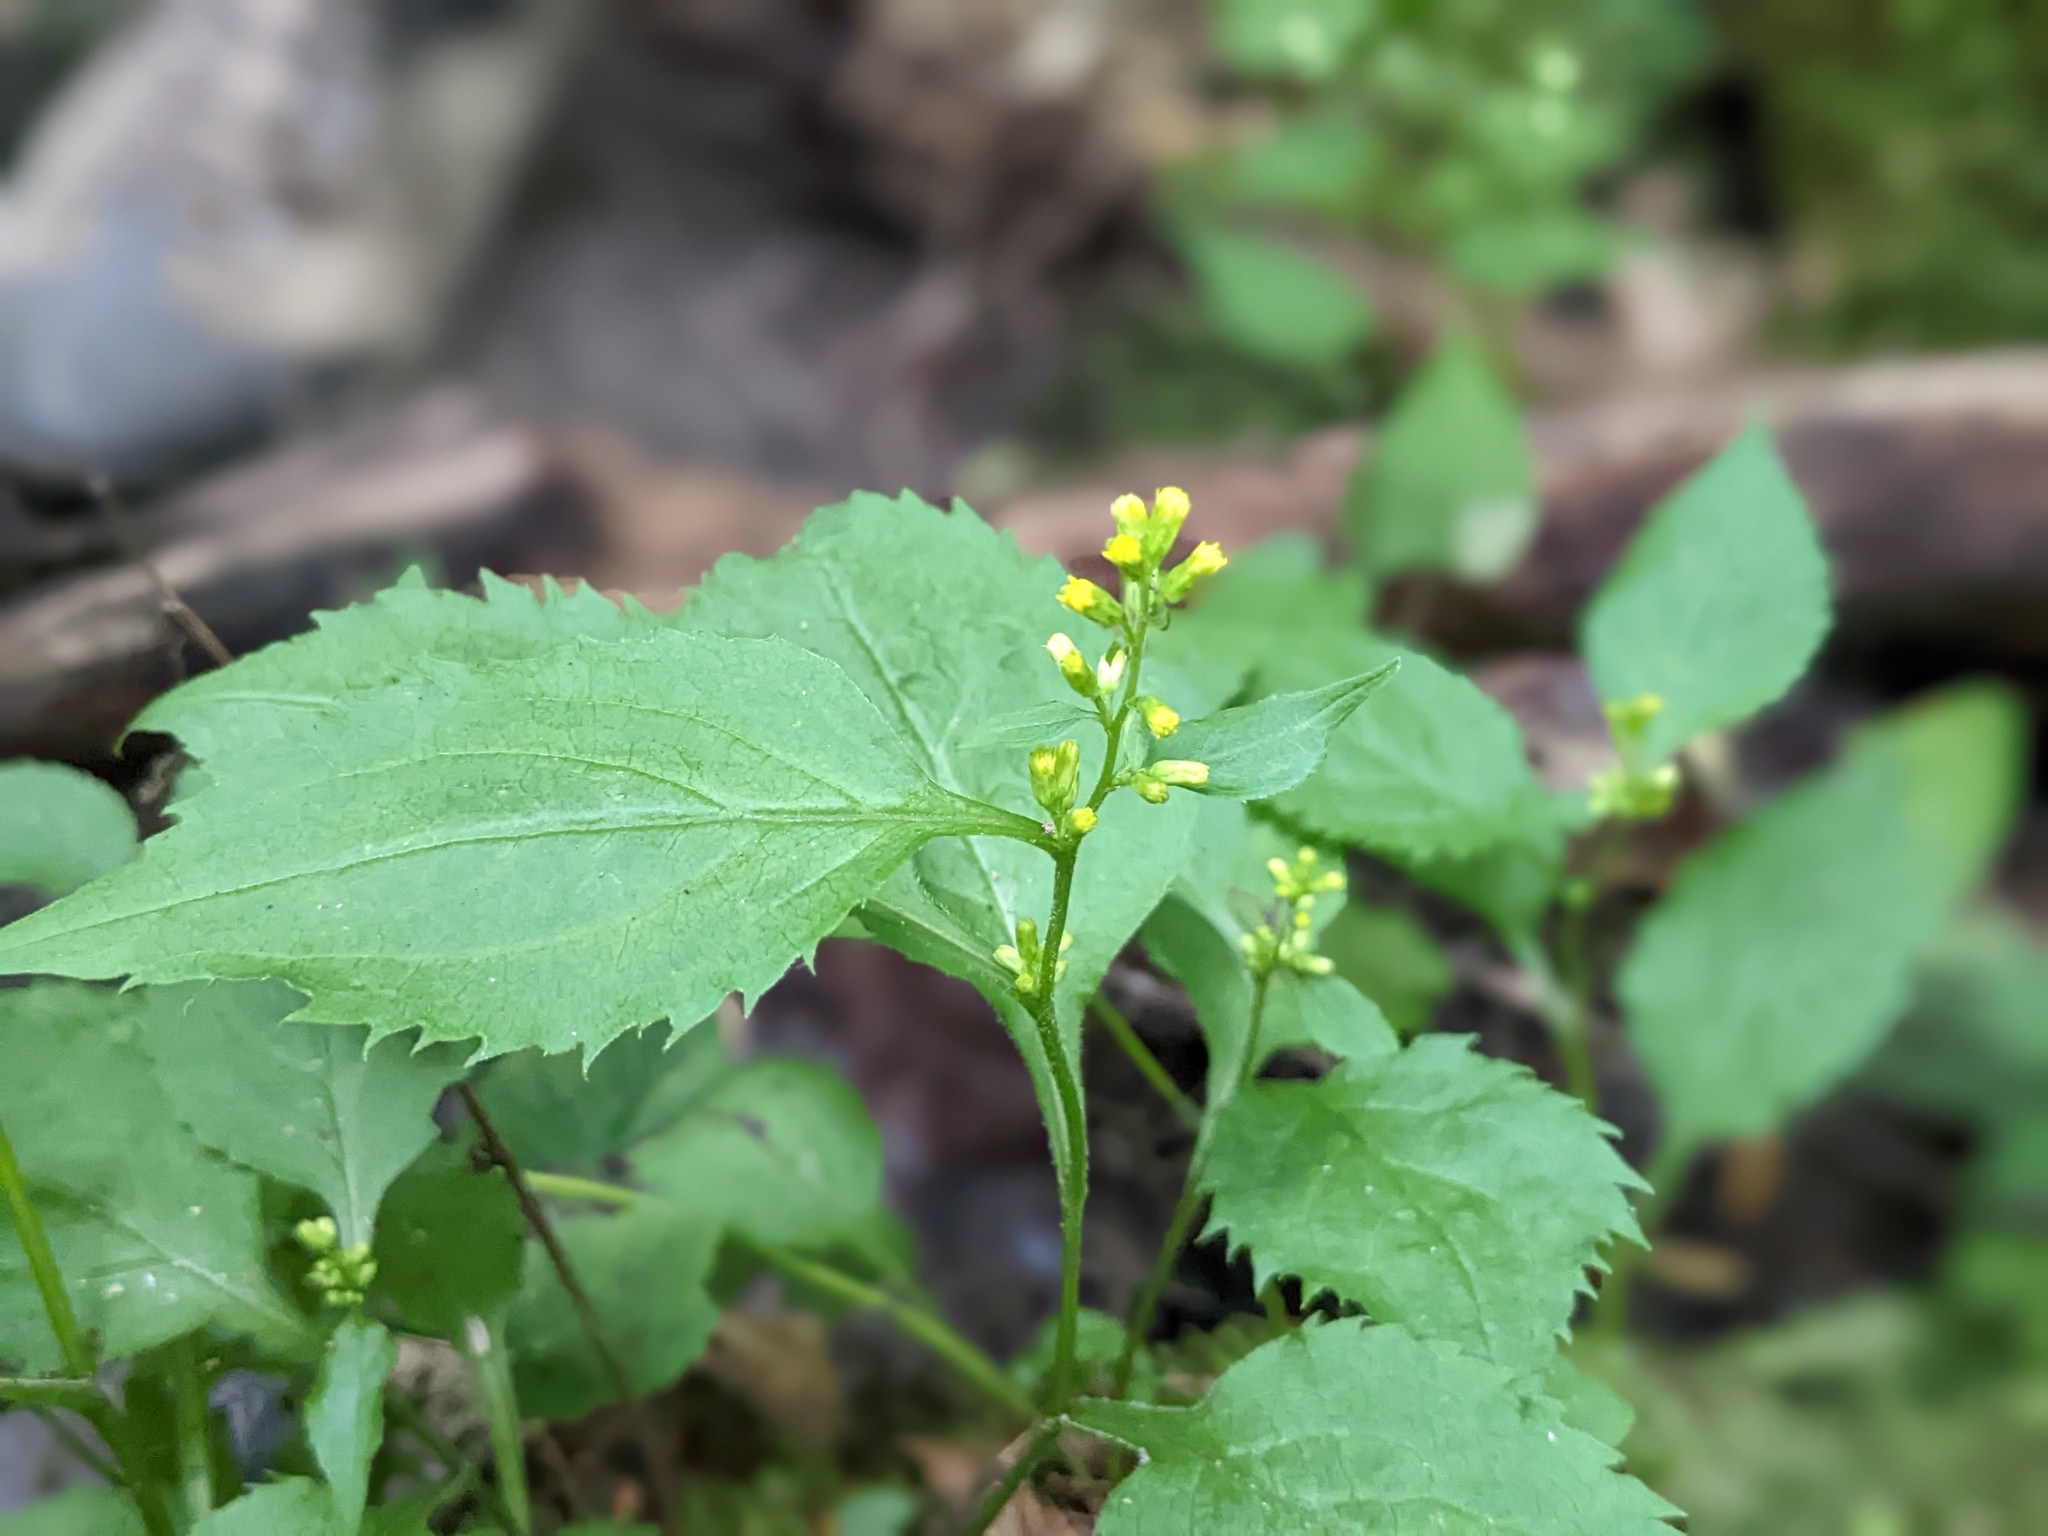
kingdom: Plantae
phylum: Tracheophyta
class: Magnoliopsida
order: Asterales
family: Asteraceae
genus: Solidago
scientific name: Solidago flexicaulis
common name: Zig-zag goldenrod
